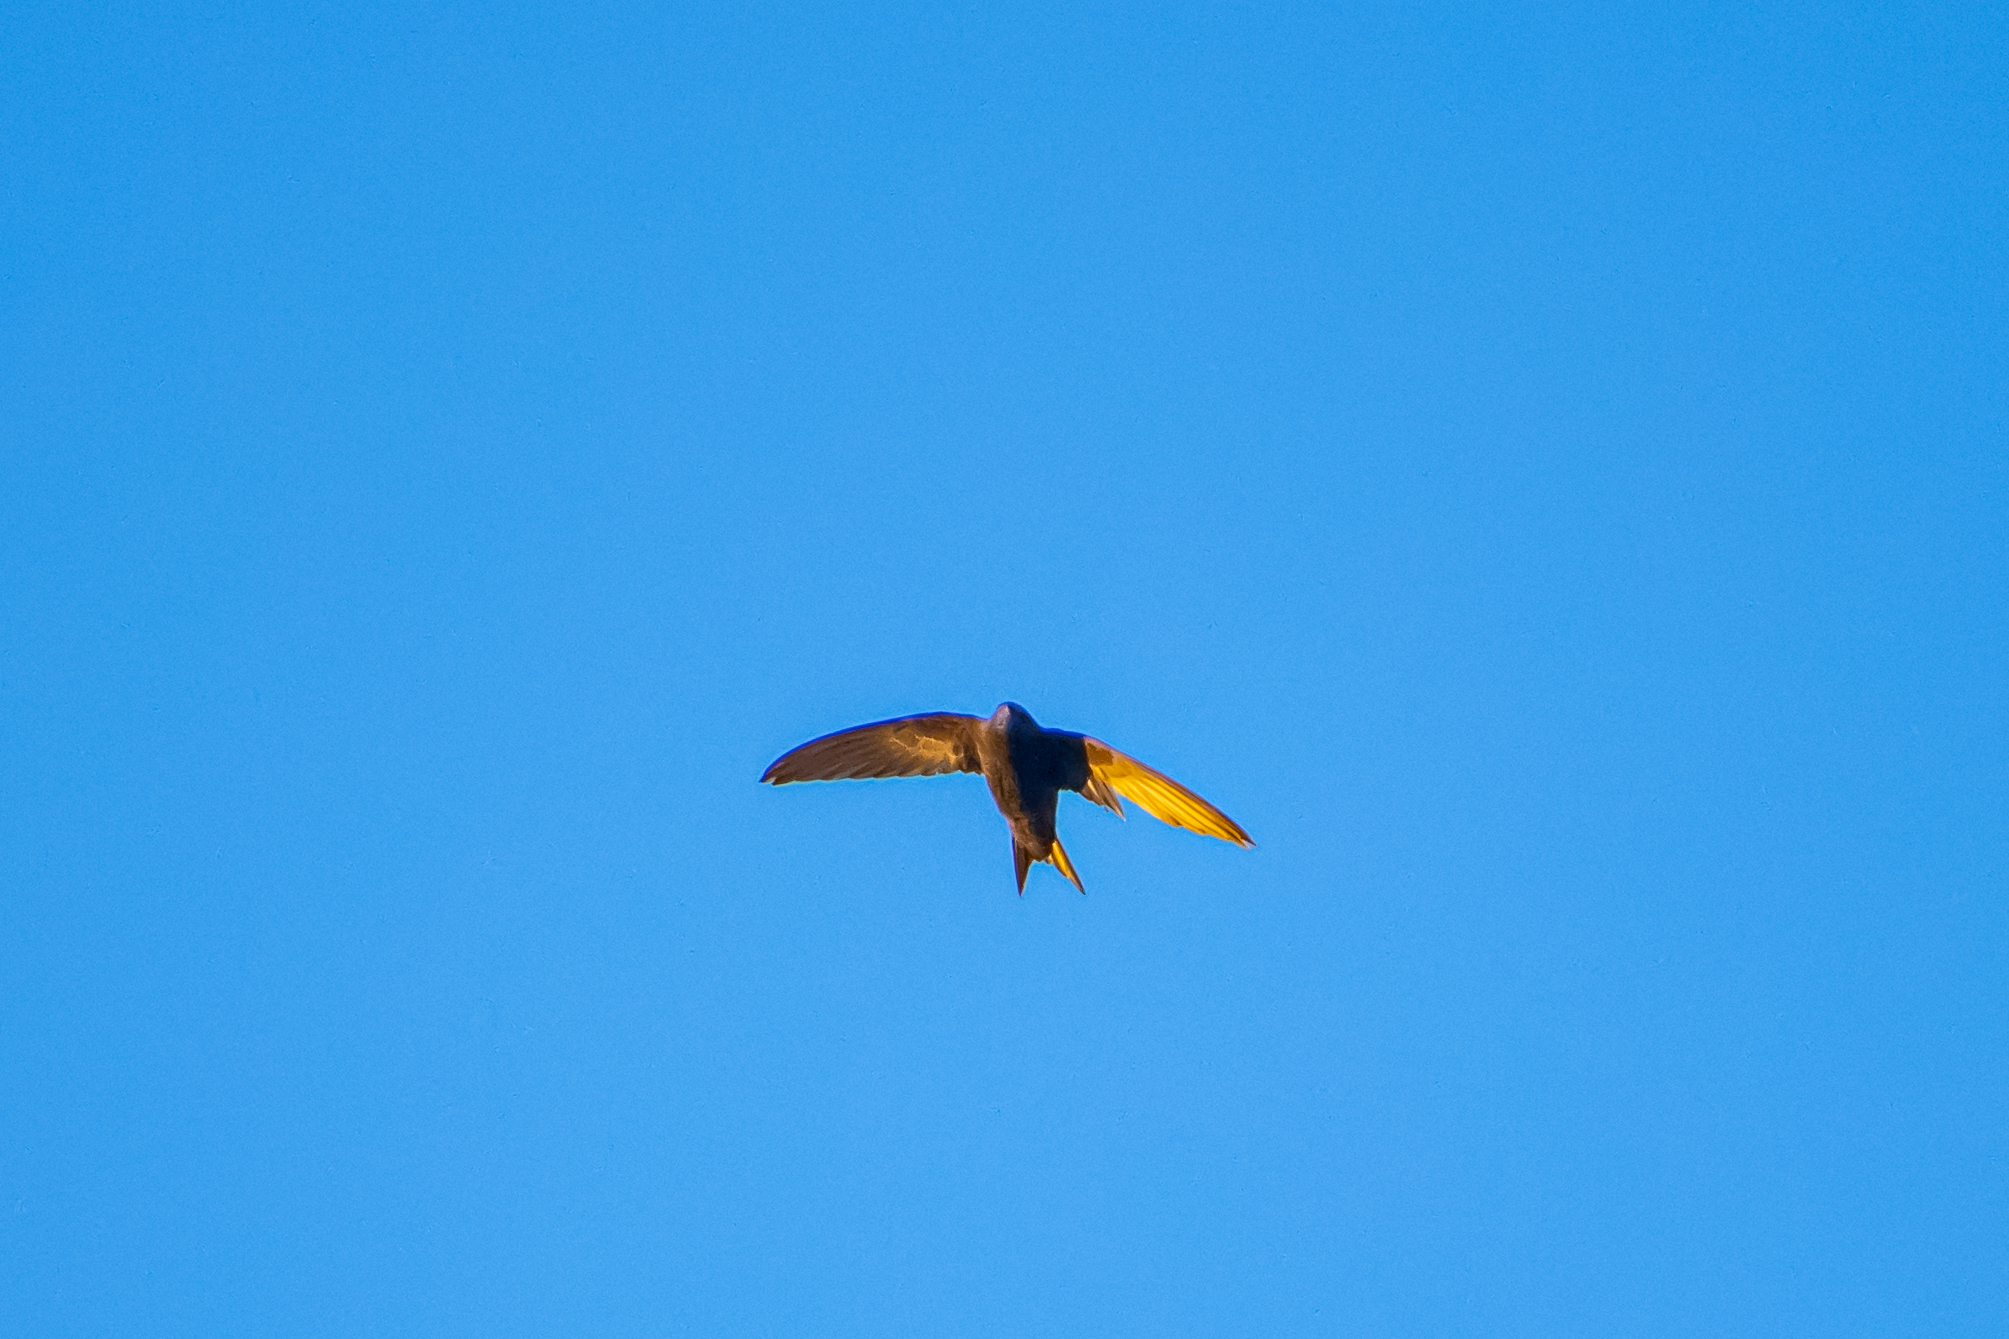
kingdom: Animalia
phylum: Chordata
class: Aves
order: Apodiformes
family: Apodidae
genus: Apus
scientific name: Apus apus
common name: Common swift
